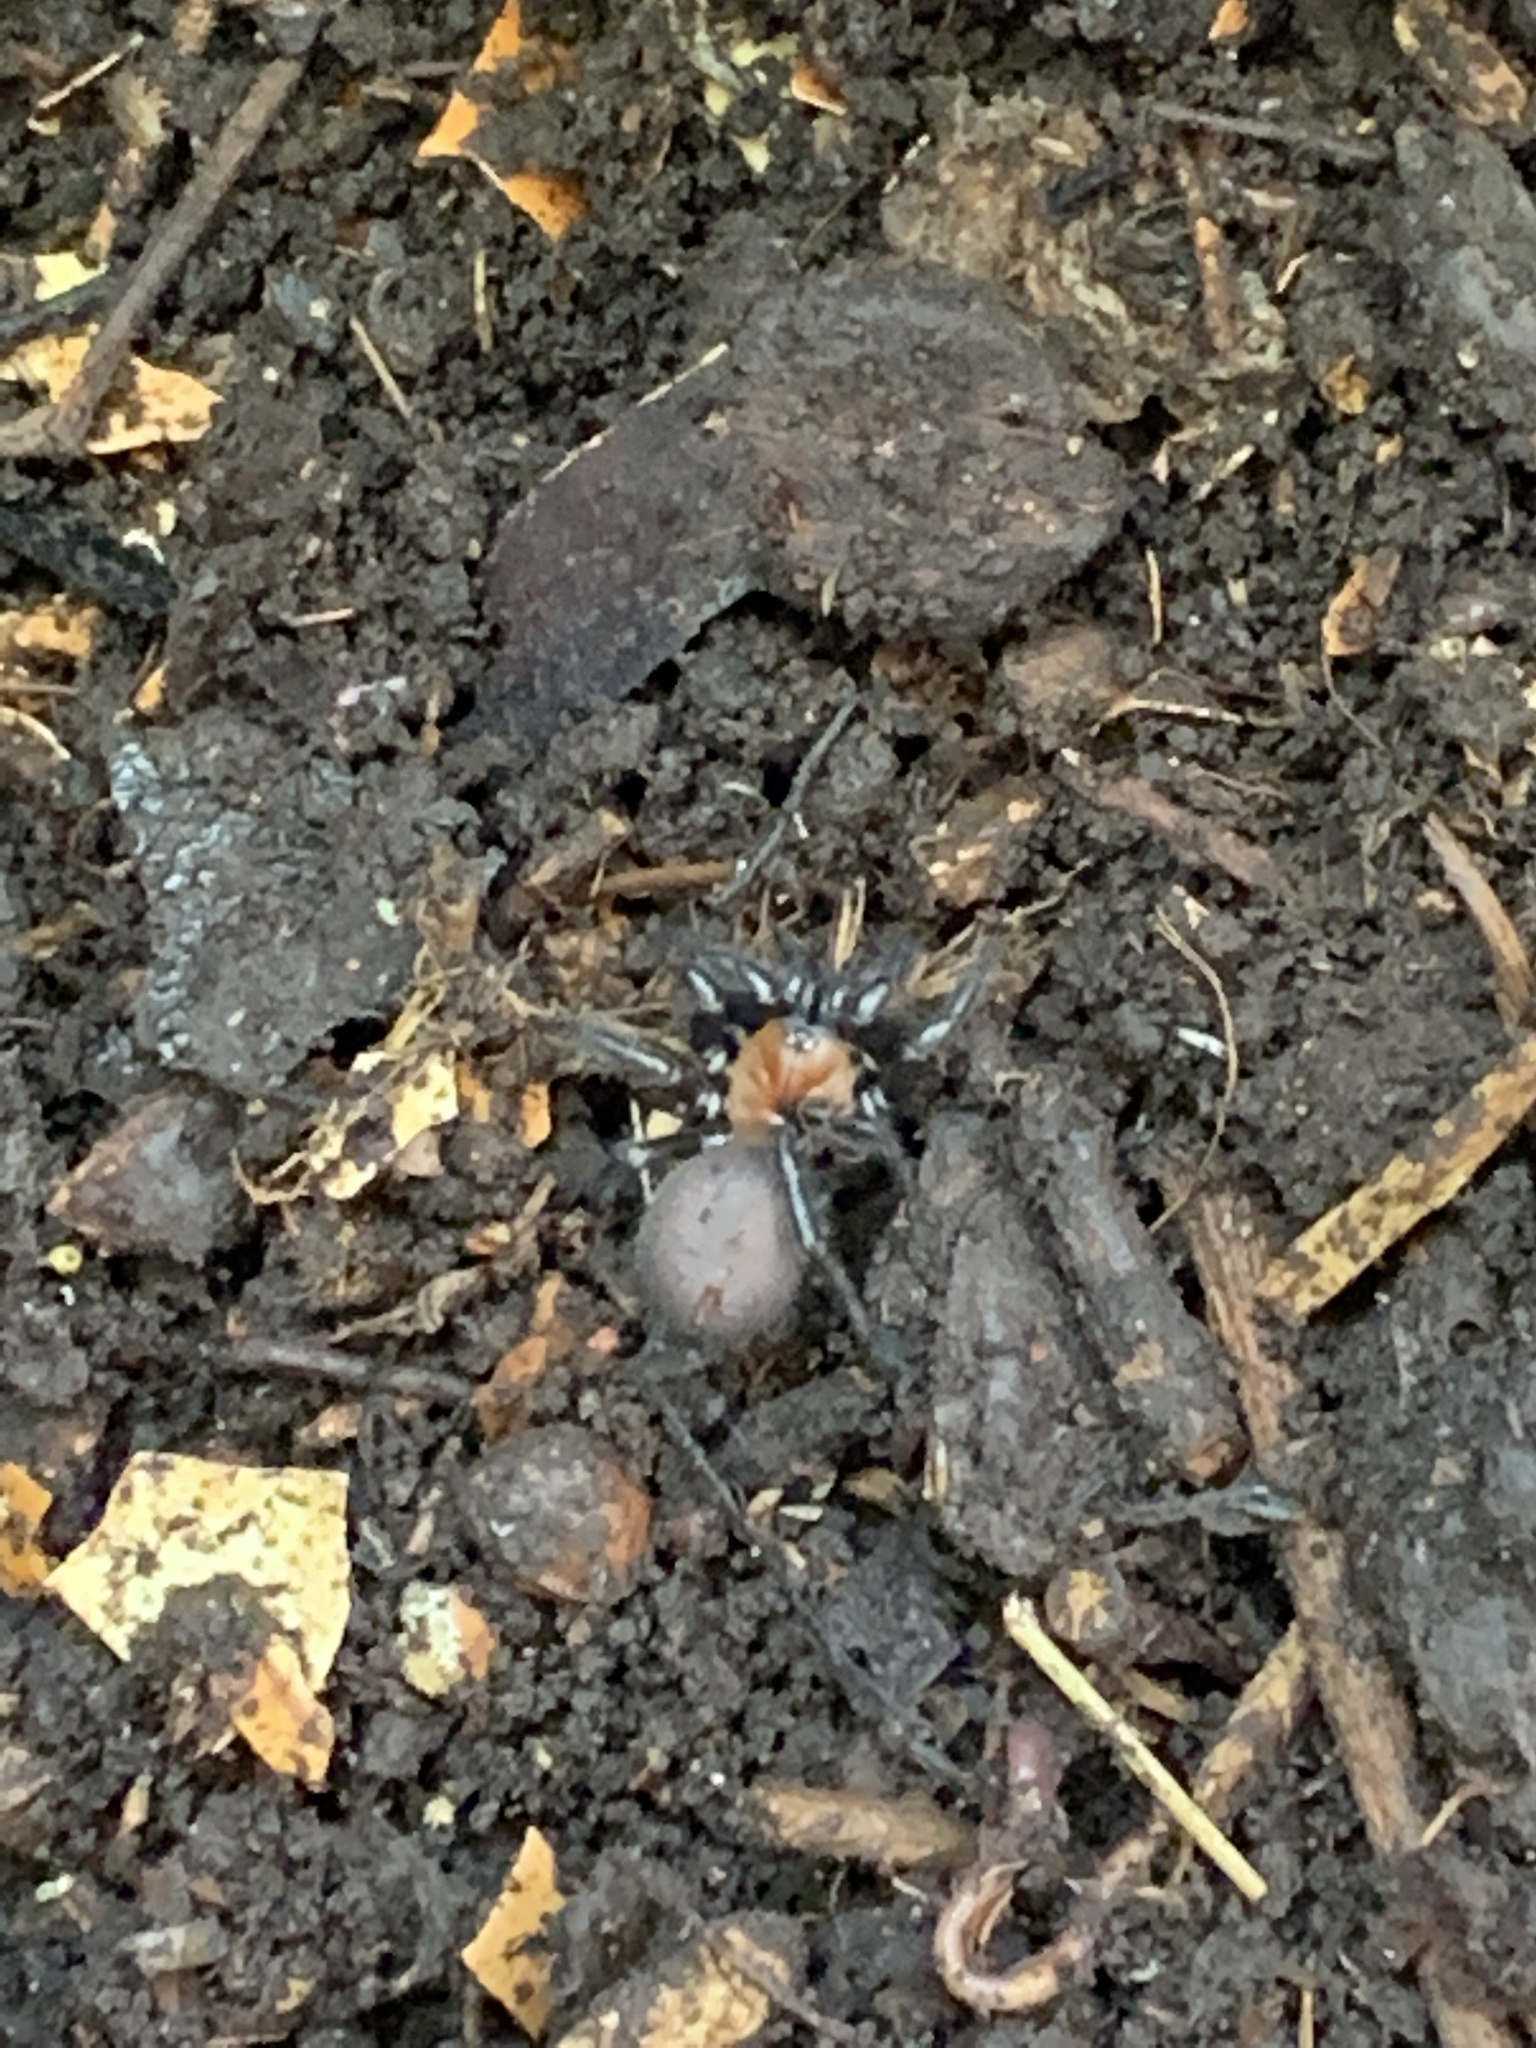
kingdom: Animalia
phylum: Arthropoda
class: Arachnida
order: Araneae
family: Porrhothelidae
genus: Porrhothele
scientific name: Porrhothele antipodiana
